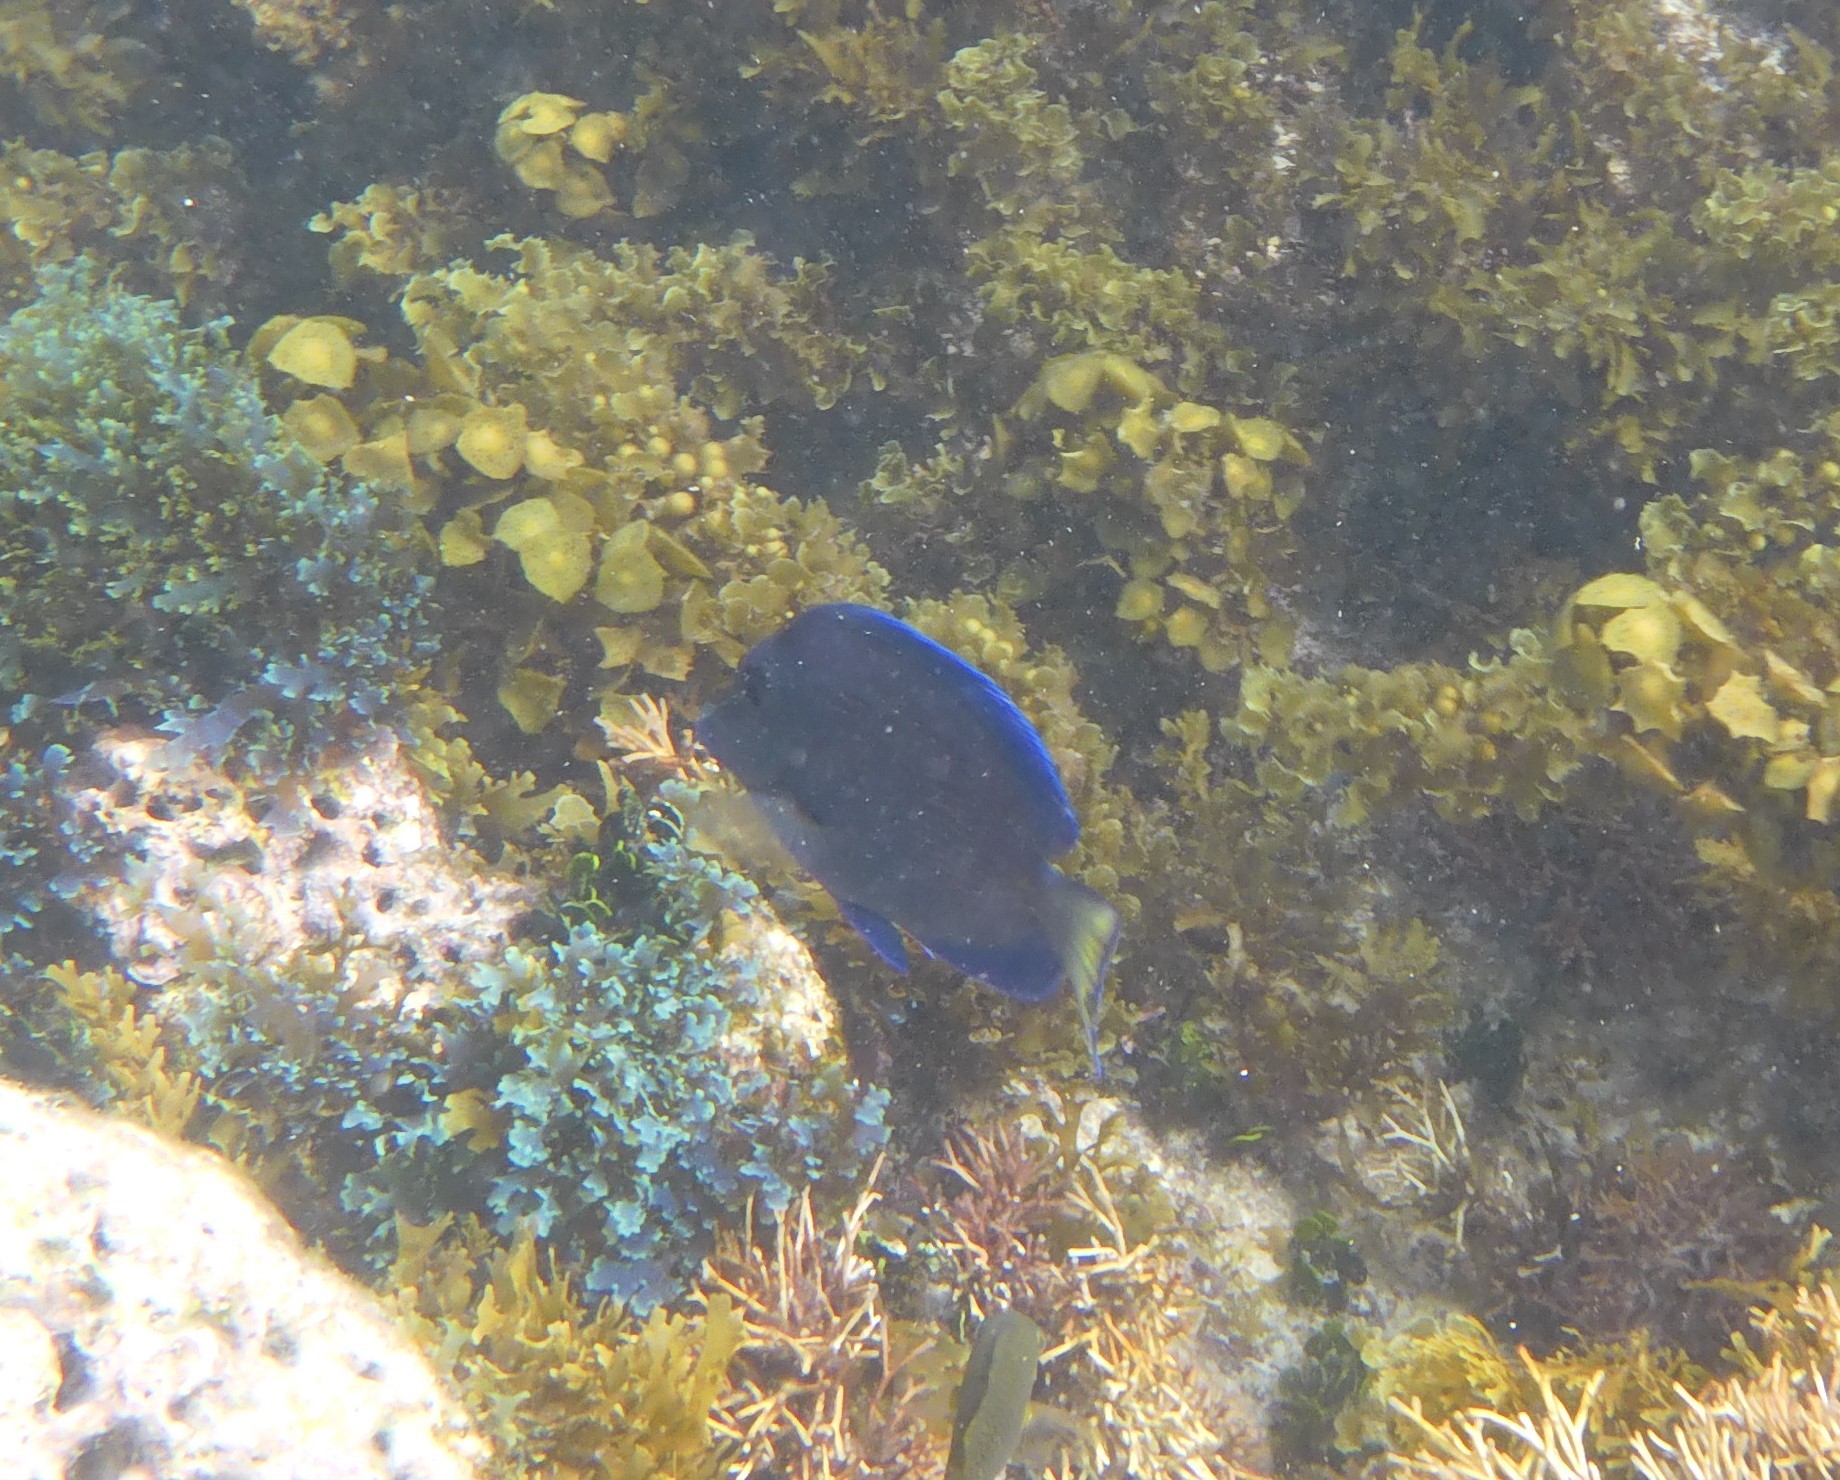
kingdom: Animalia
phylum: Chordata
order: Perciformes
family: Acanthuridae
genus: Acanthurus
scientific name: Acanthurus coeruleus
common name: Blue tang
